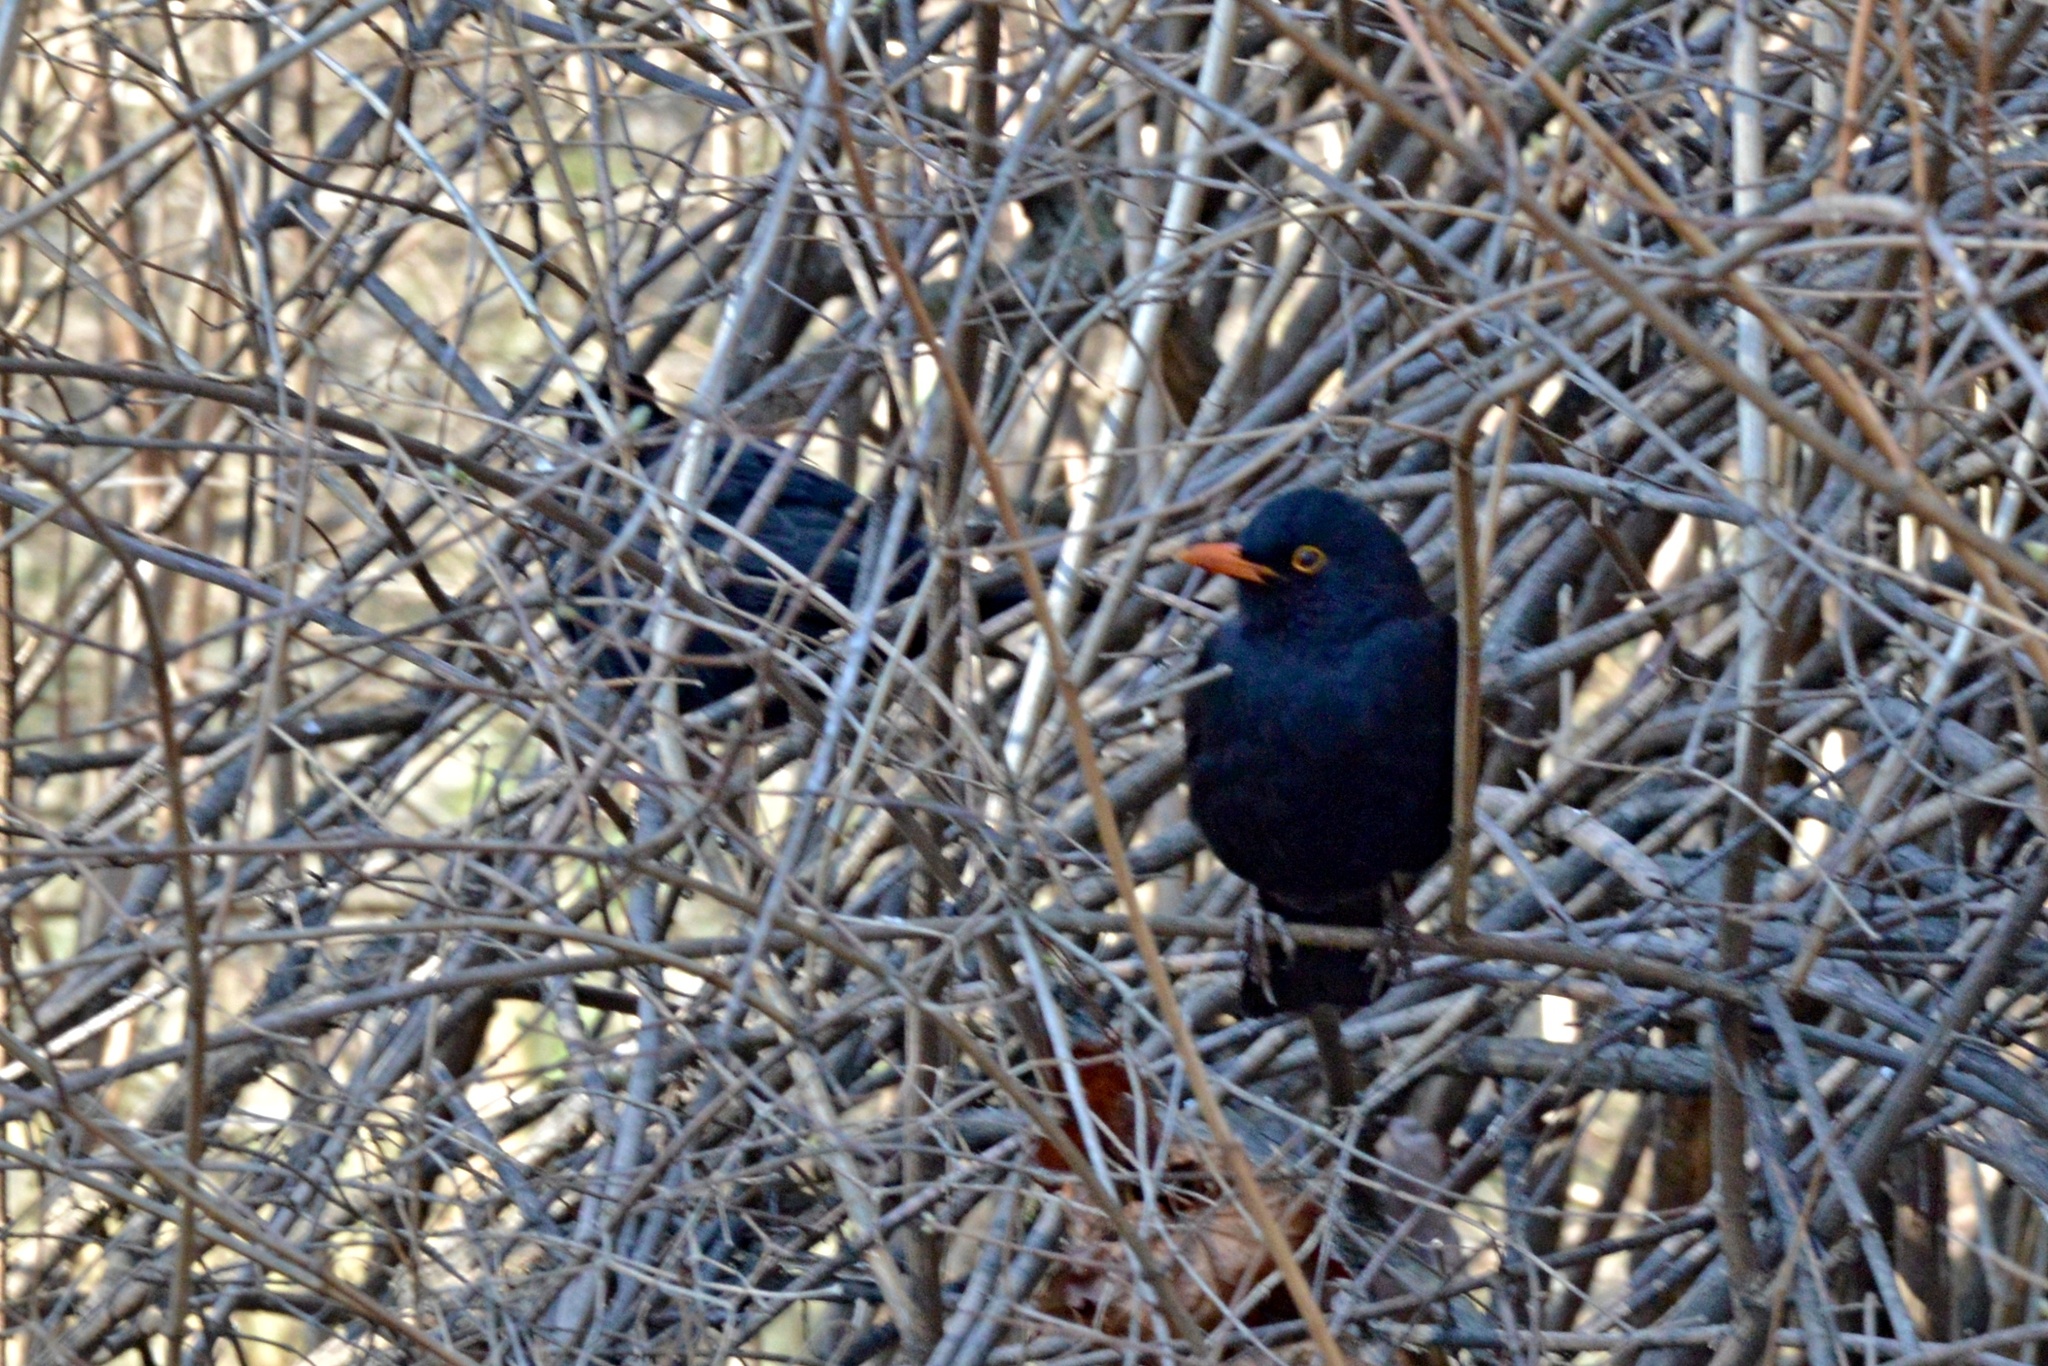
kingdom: Animalia
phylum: Chordata
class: Aves
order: Passeriformes
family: Turdidae
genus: Turdus
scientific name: Turdus merula
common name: Common blackbird
